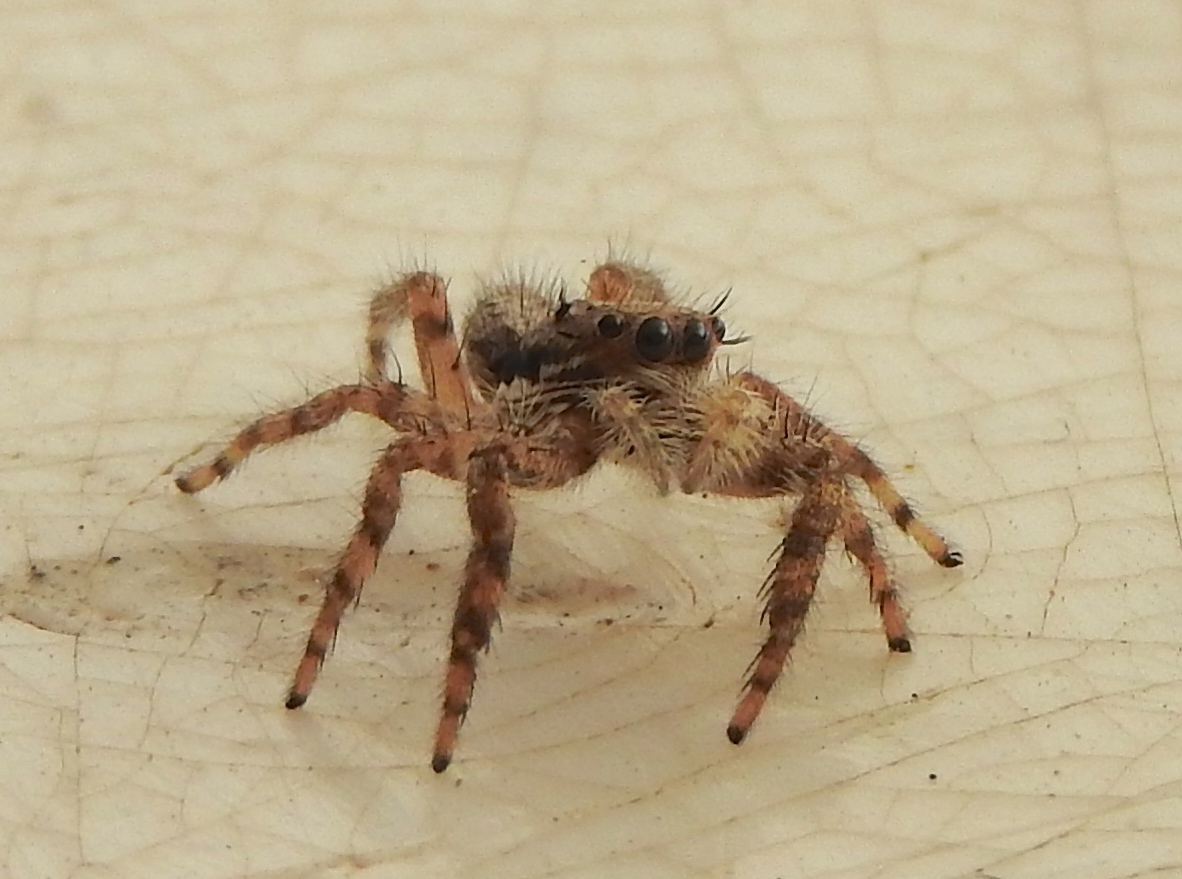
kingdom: Animalia
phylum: Arthropoda
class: Arachnida
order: Araneae
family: Salticidae
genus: Balmaceda
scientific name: Balmaceda
